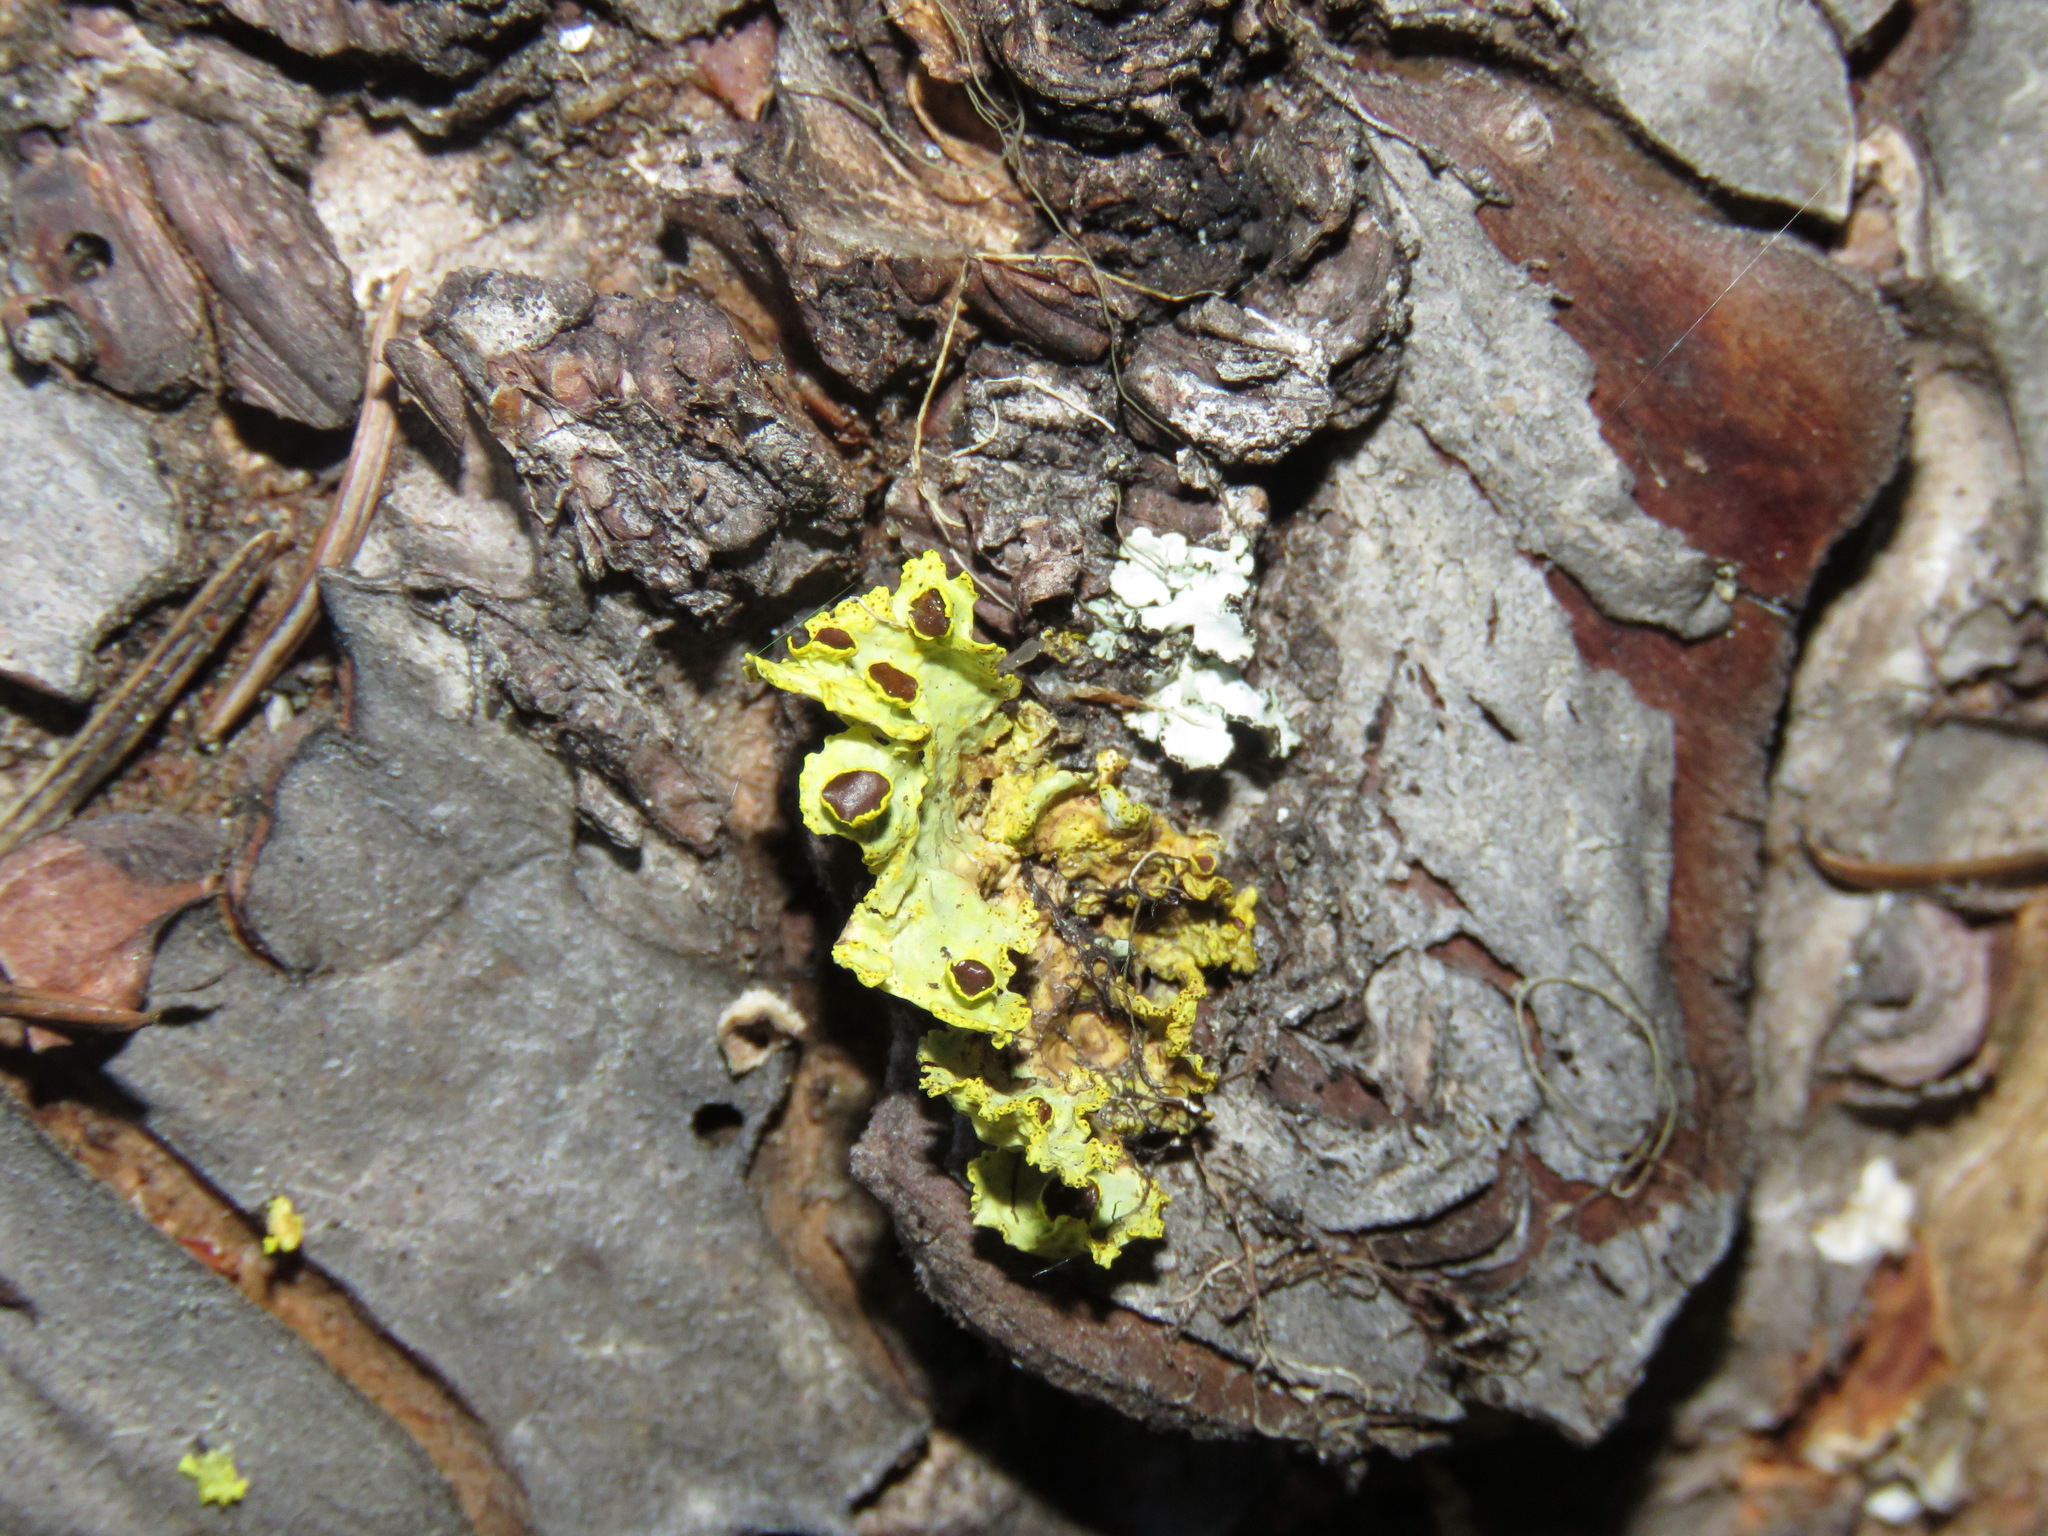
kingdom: Fungi
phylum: Ascomycota
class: Lecanoromycetes
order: Lecanorales
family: Parmeliaceae
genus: Vulpicida
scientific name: Vulpicida canadensis
